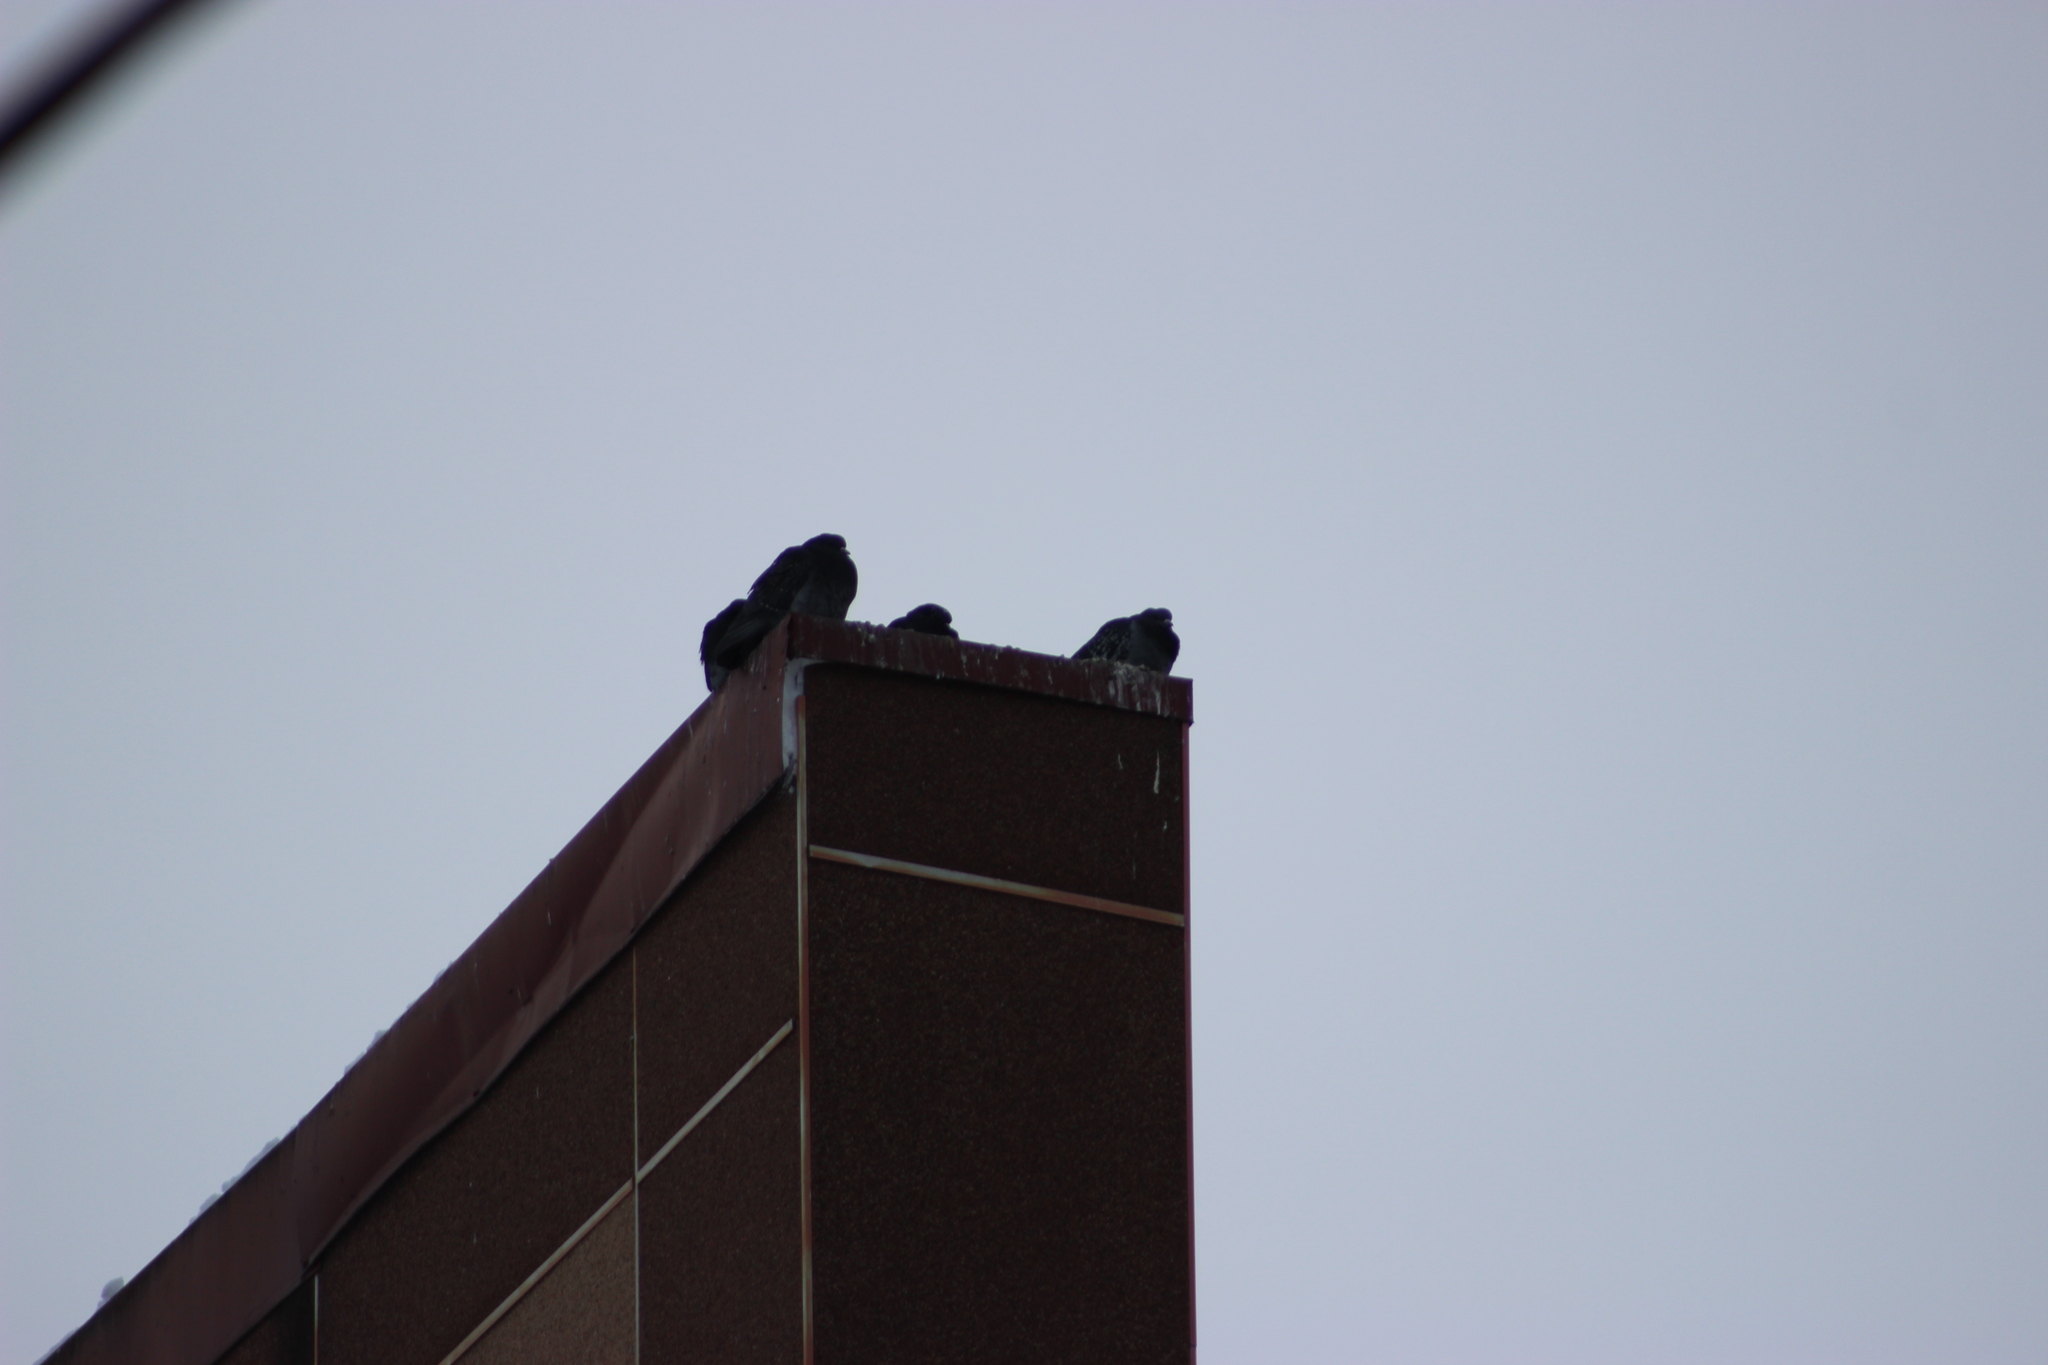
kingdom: Animalia
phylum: Chordata
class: Aves
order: Columbiformes
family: Columbidae
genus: Columba
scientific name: Columba livia
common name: Rock pigeon
